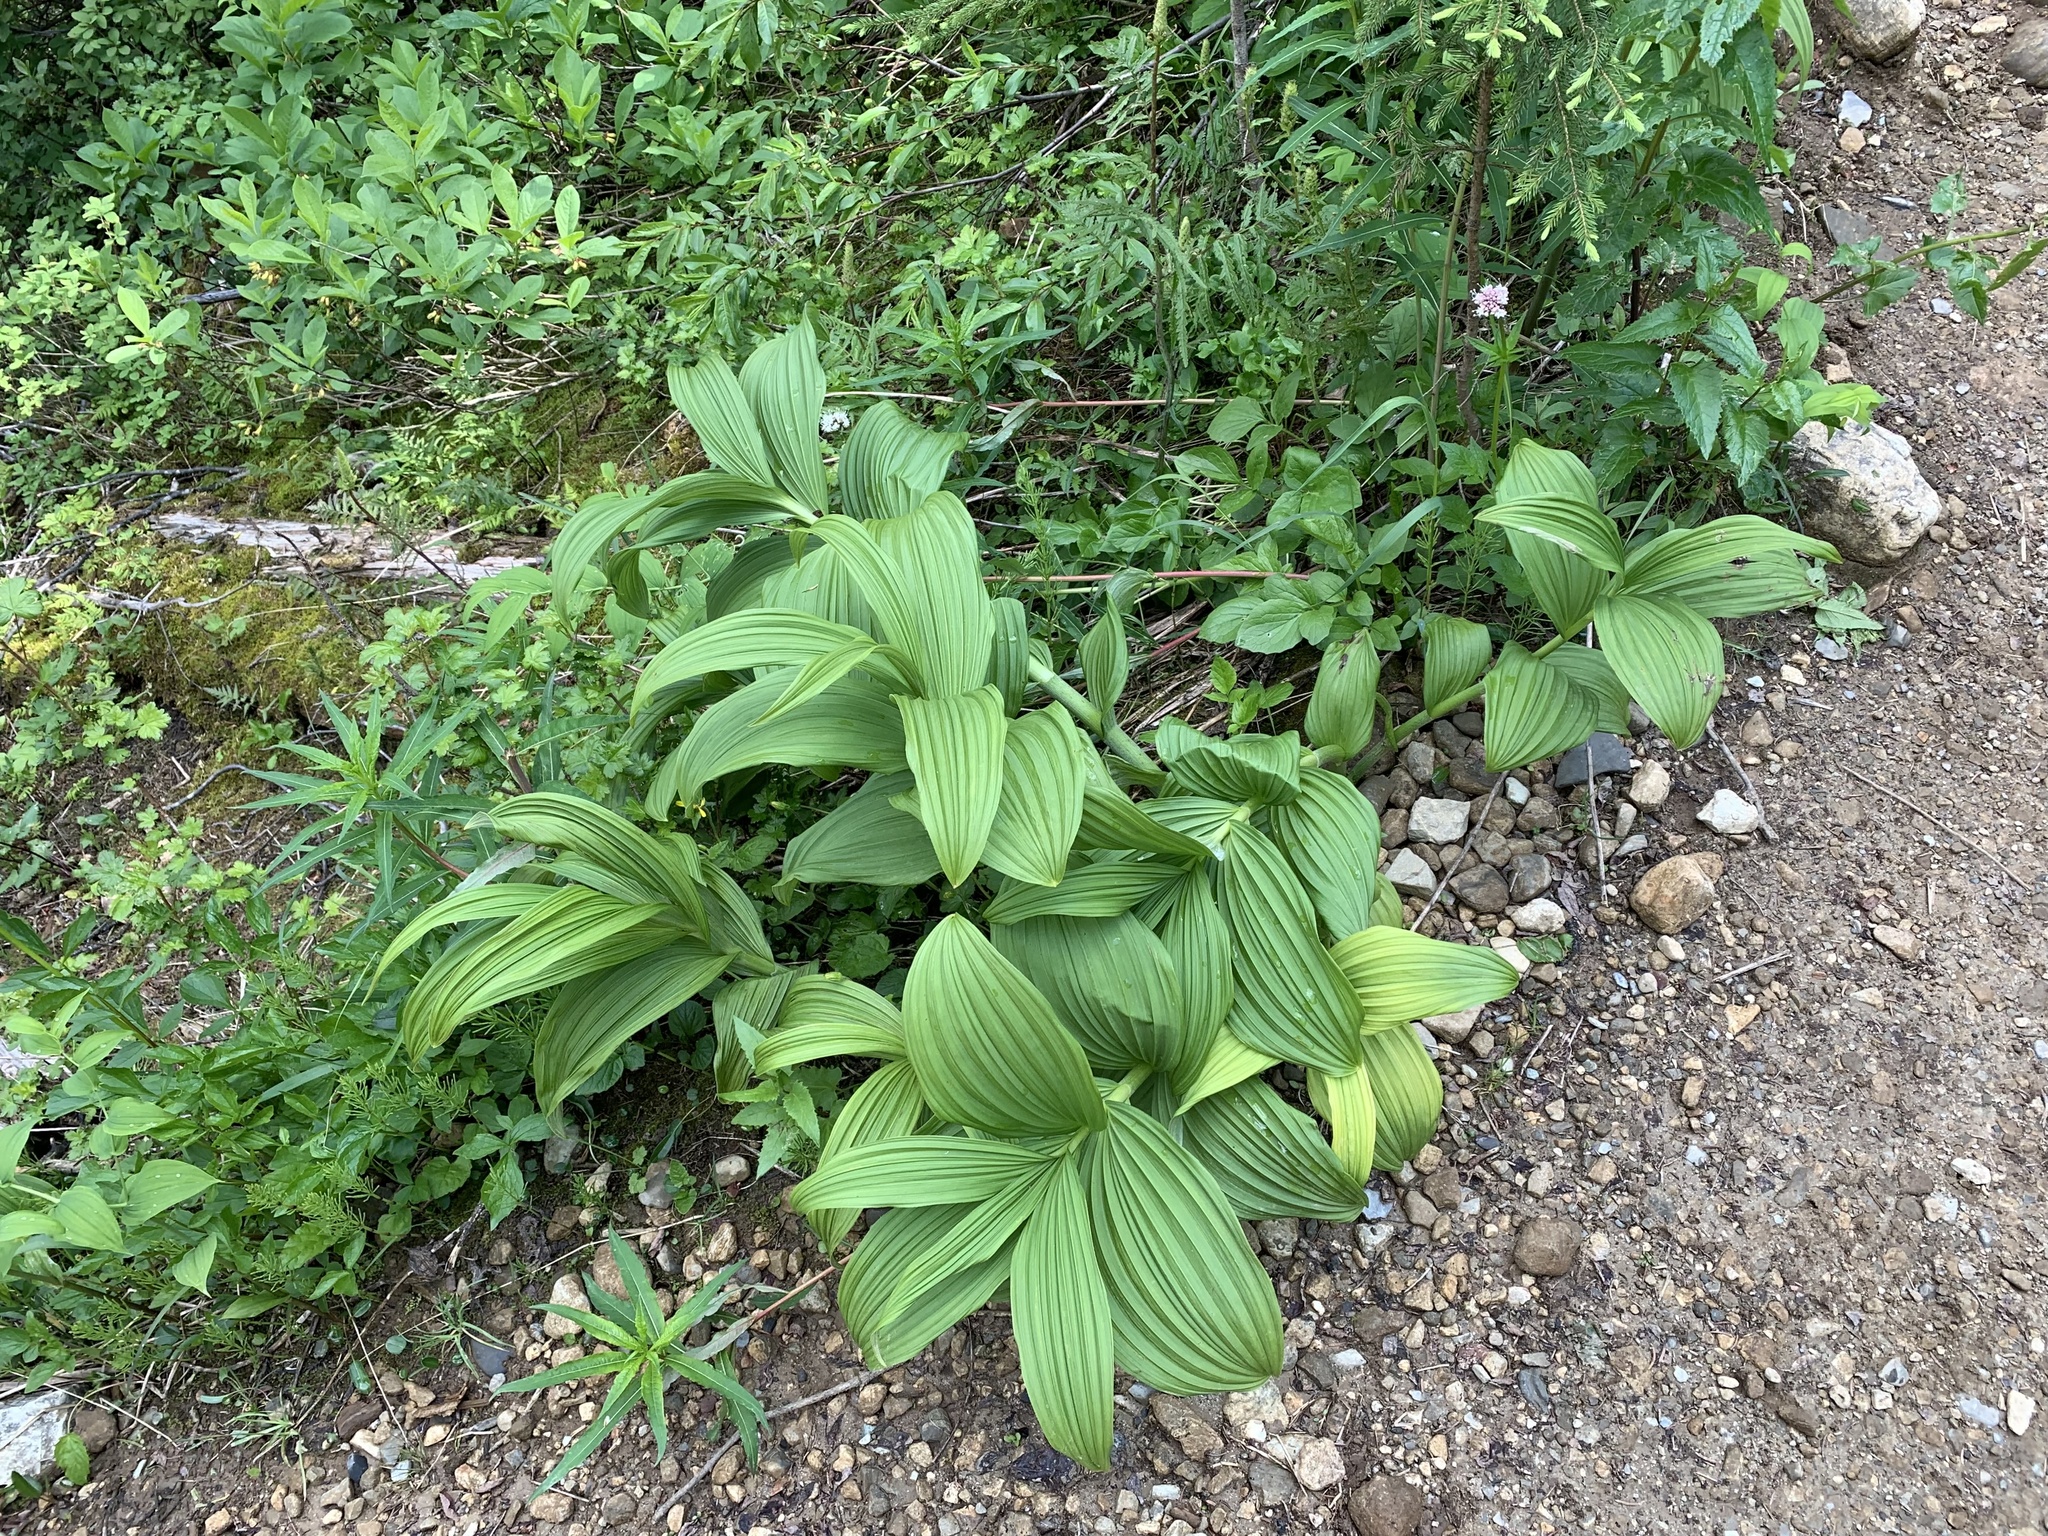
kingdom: Plantae
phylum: Tracheophyta
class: Liliopsida
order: Liliales
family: Melanthiaceae
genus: Veratrum
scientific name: Veratrum viride
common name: American false hellebore
